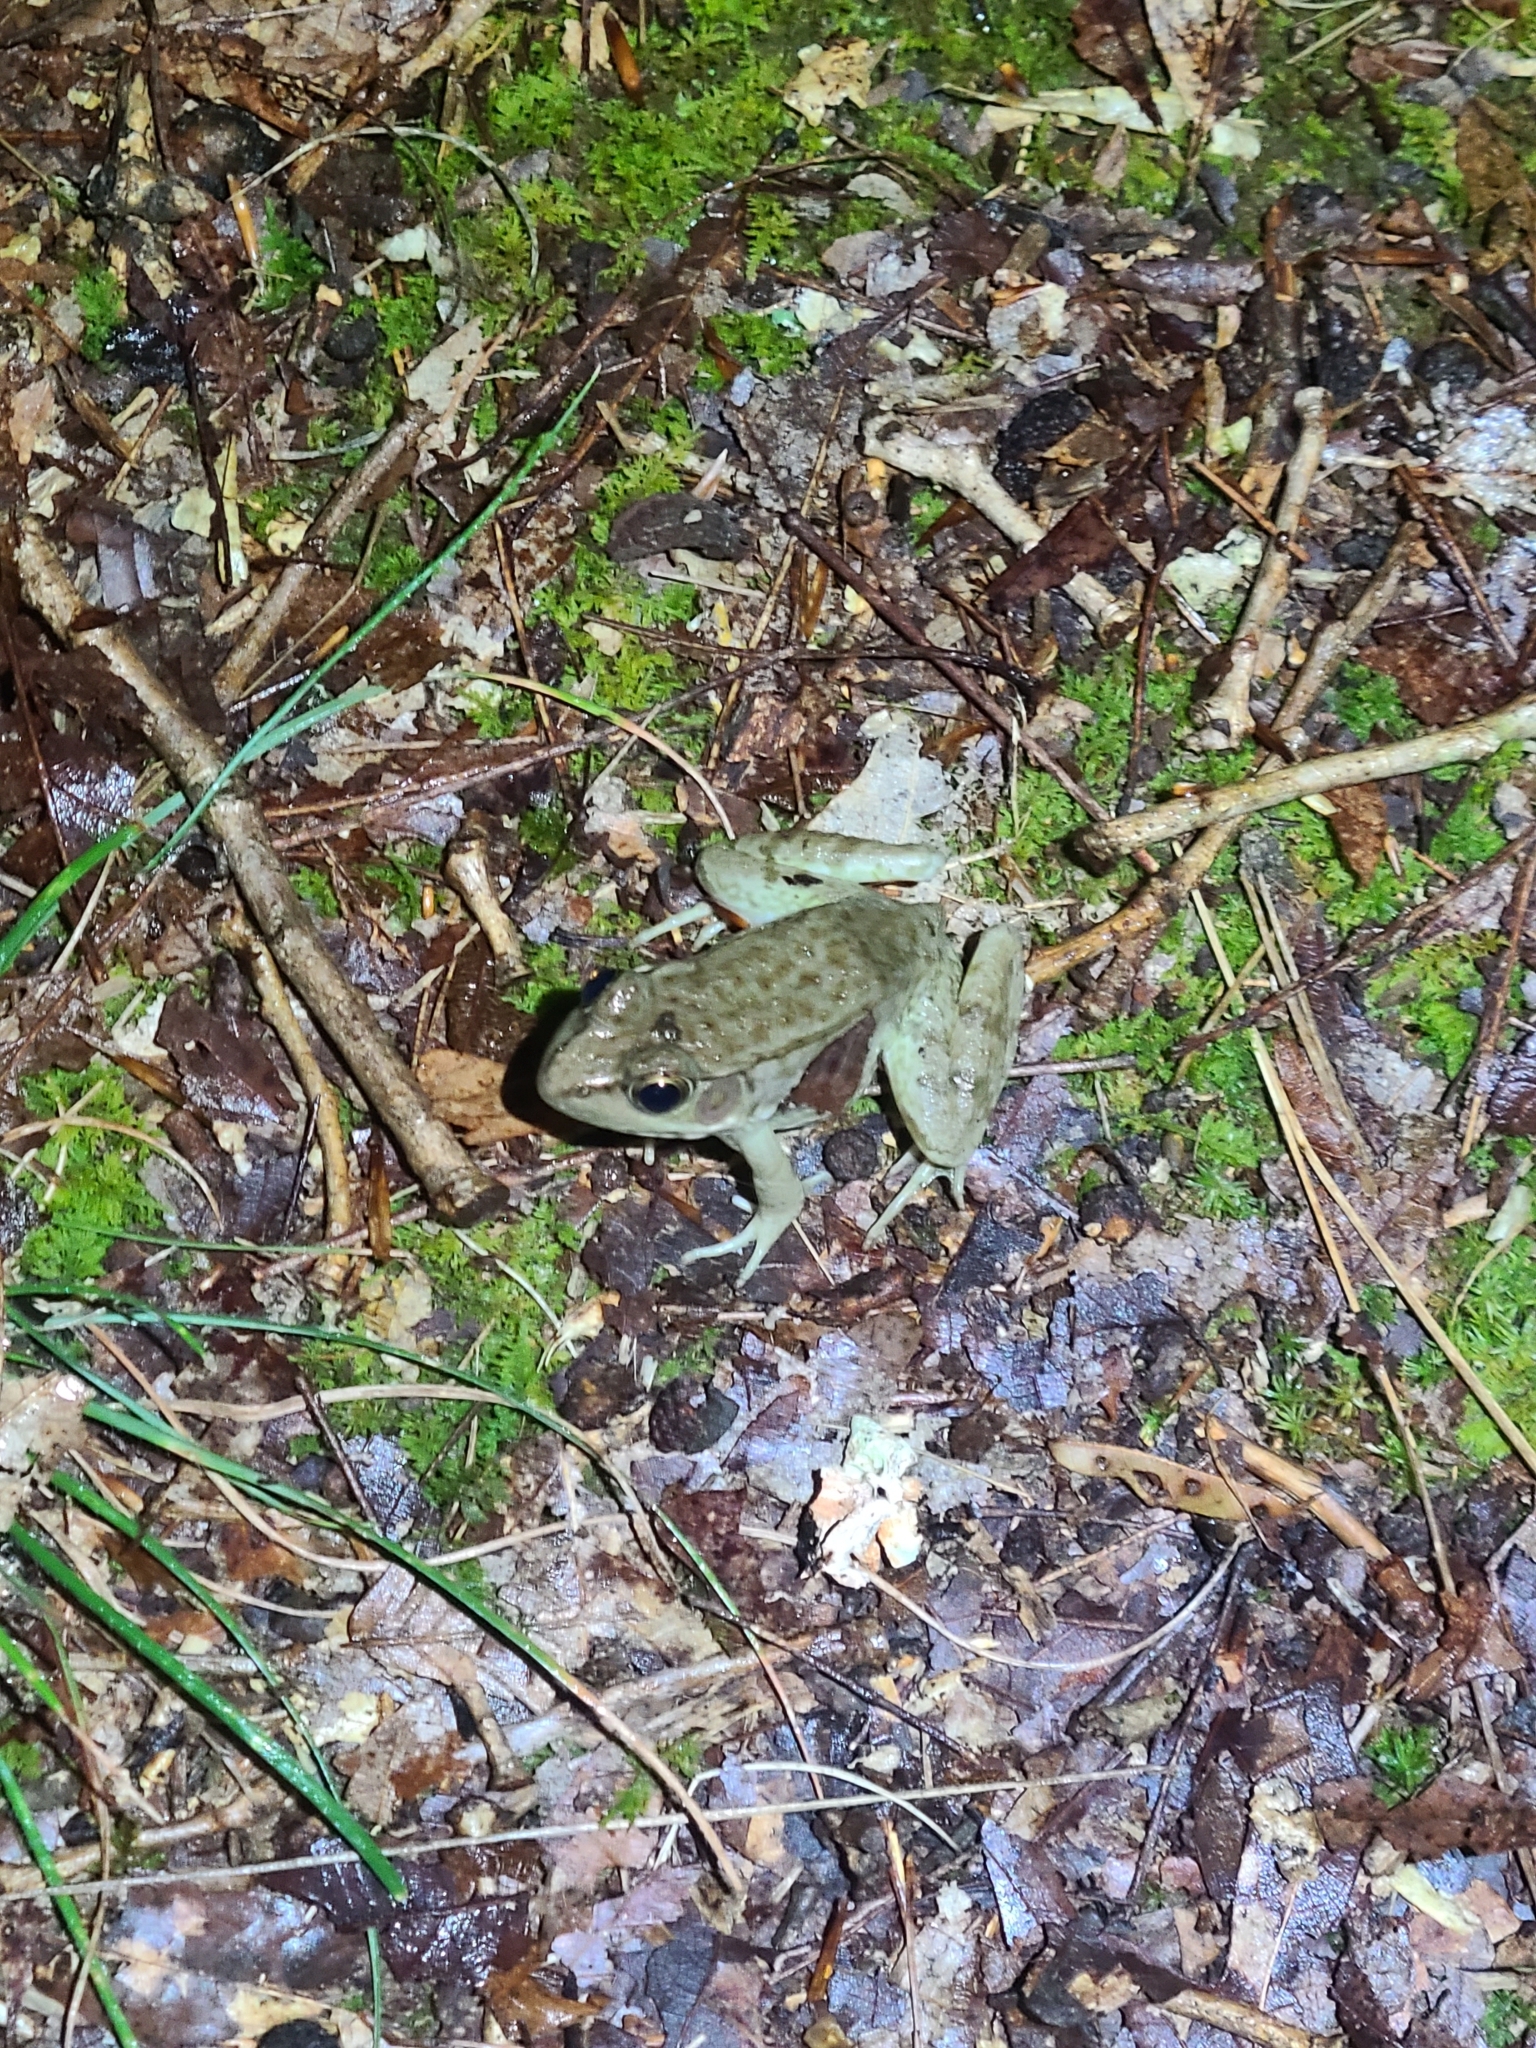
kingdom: Animalia
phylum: Chordata
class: Amphibia
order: Anura
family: Ranidae
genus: Lithobates
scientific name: Lithobates clamitans
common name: Green frog
